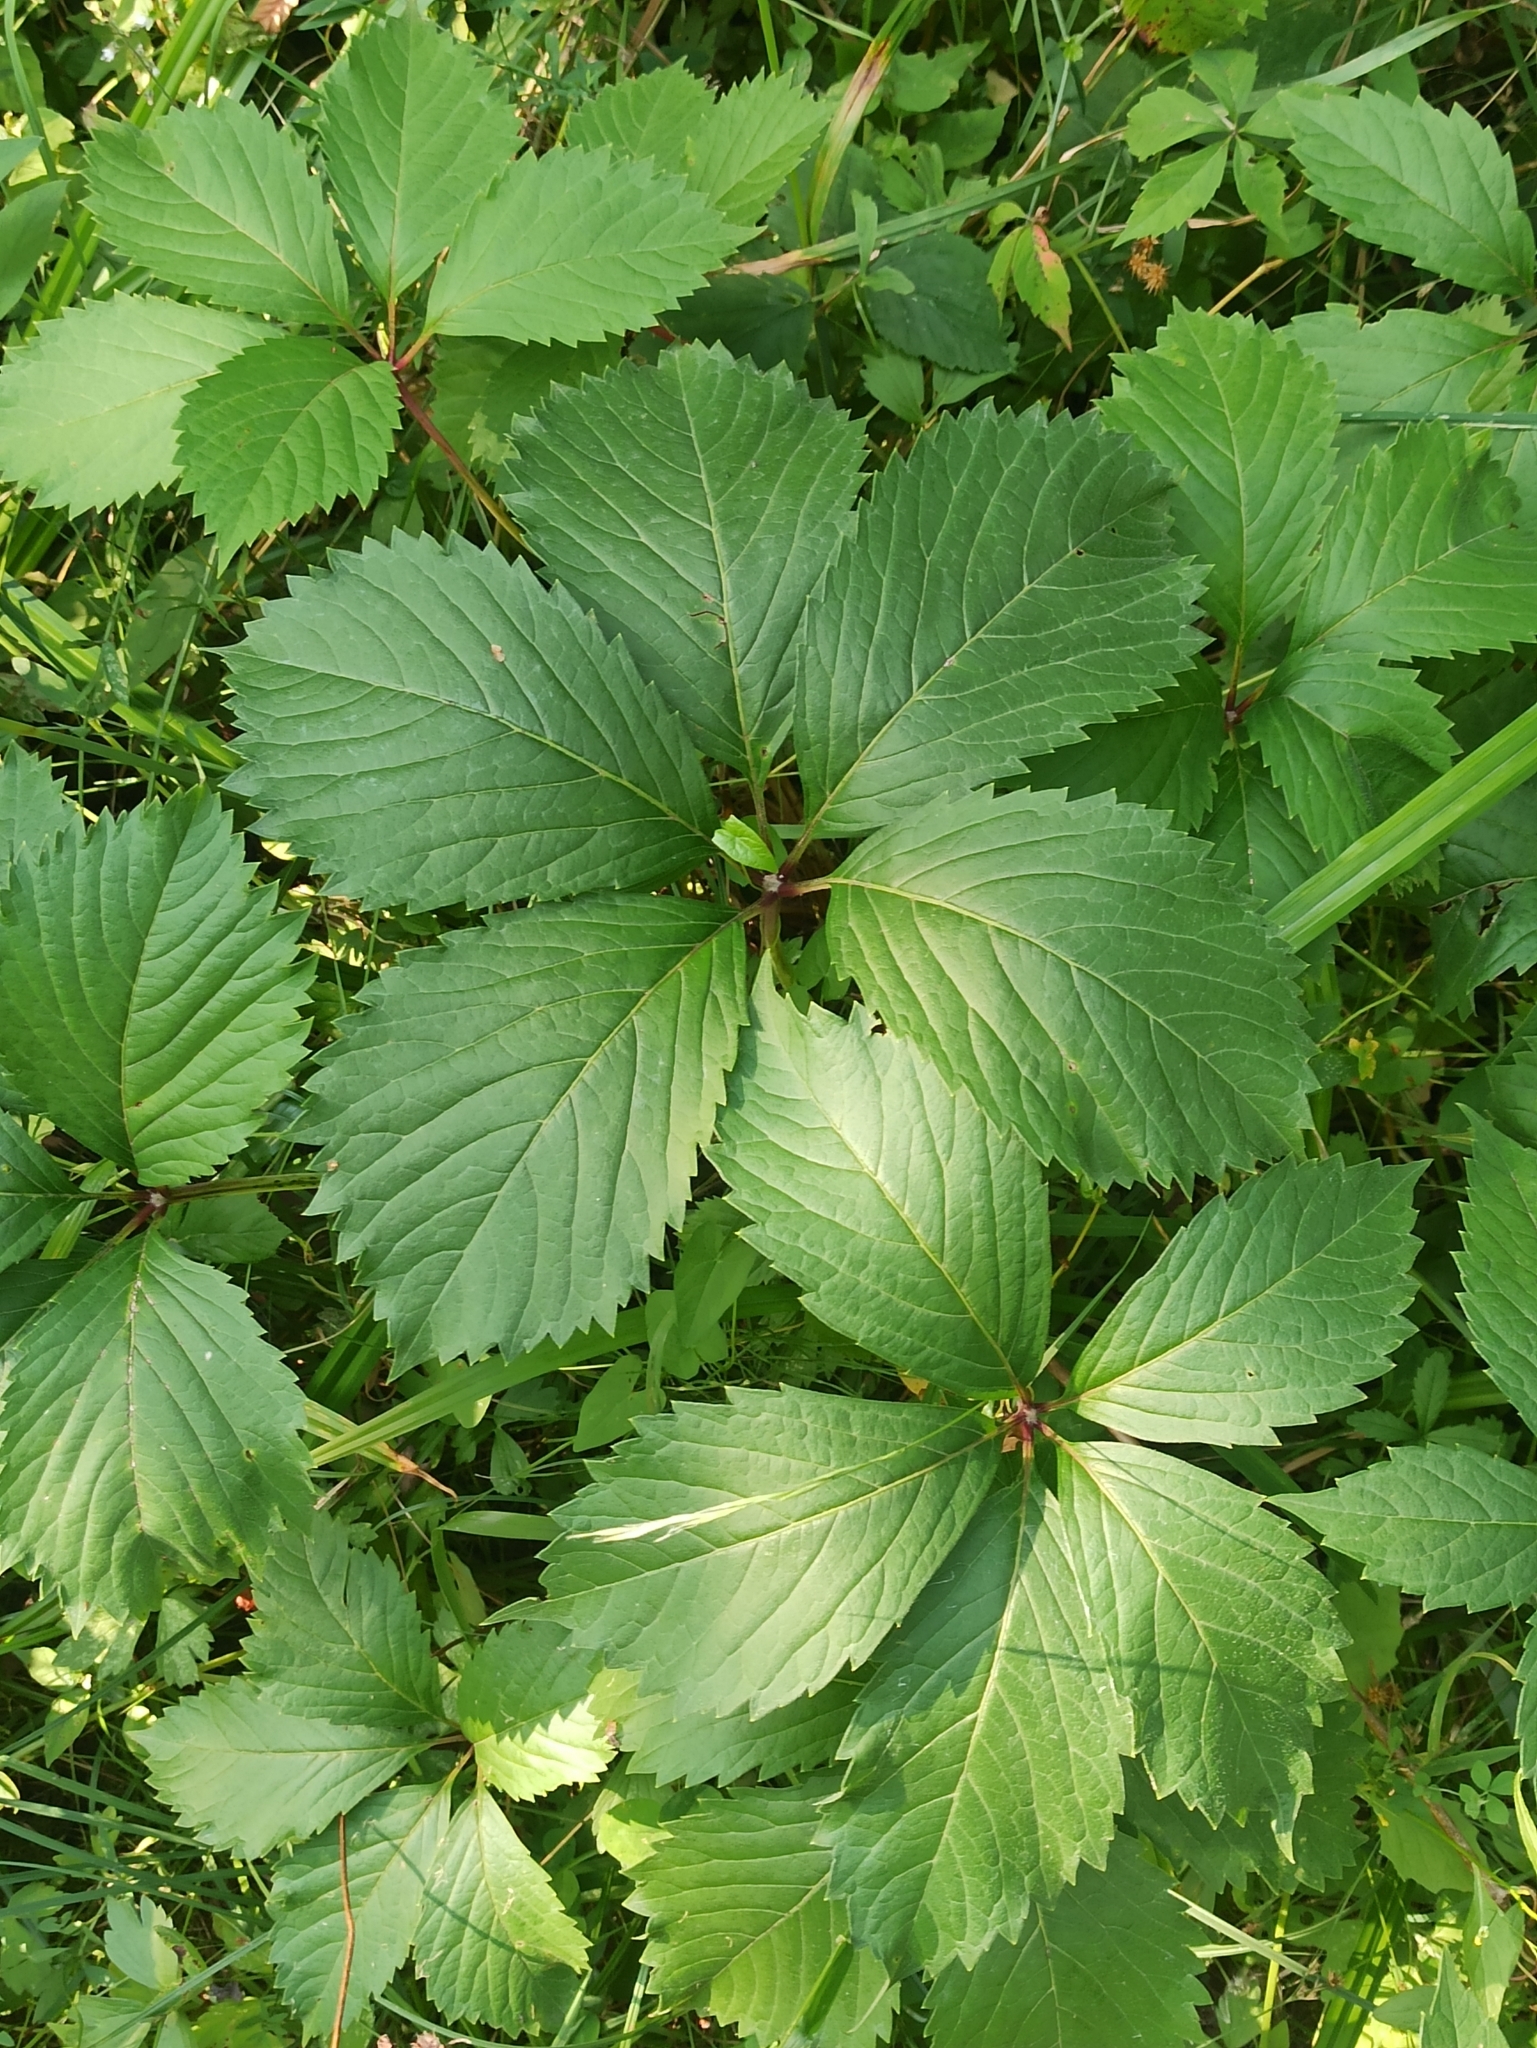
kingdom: Plantae
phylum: Tracheophyta
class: Magnoliopsida
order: Vitales
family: Vitaceae
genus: Parthenocissus
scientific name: Parthenocissus inserta
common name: False virginia-creeper
